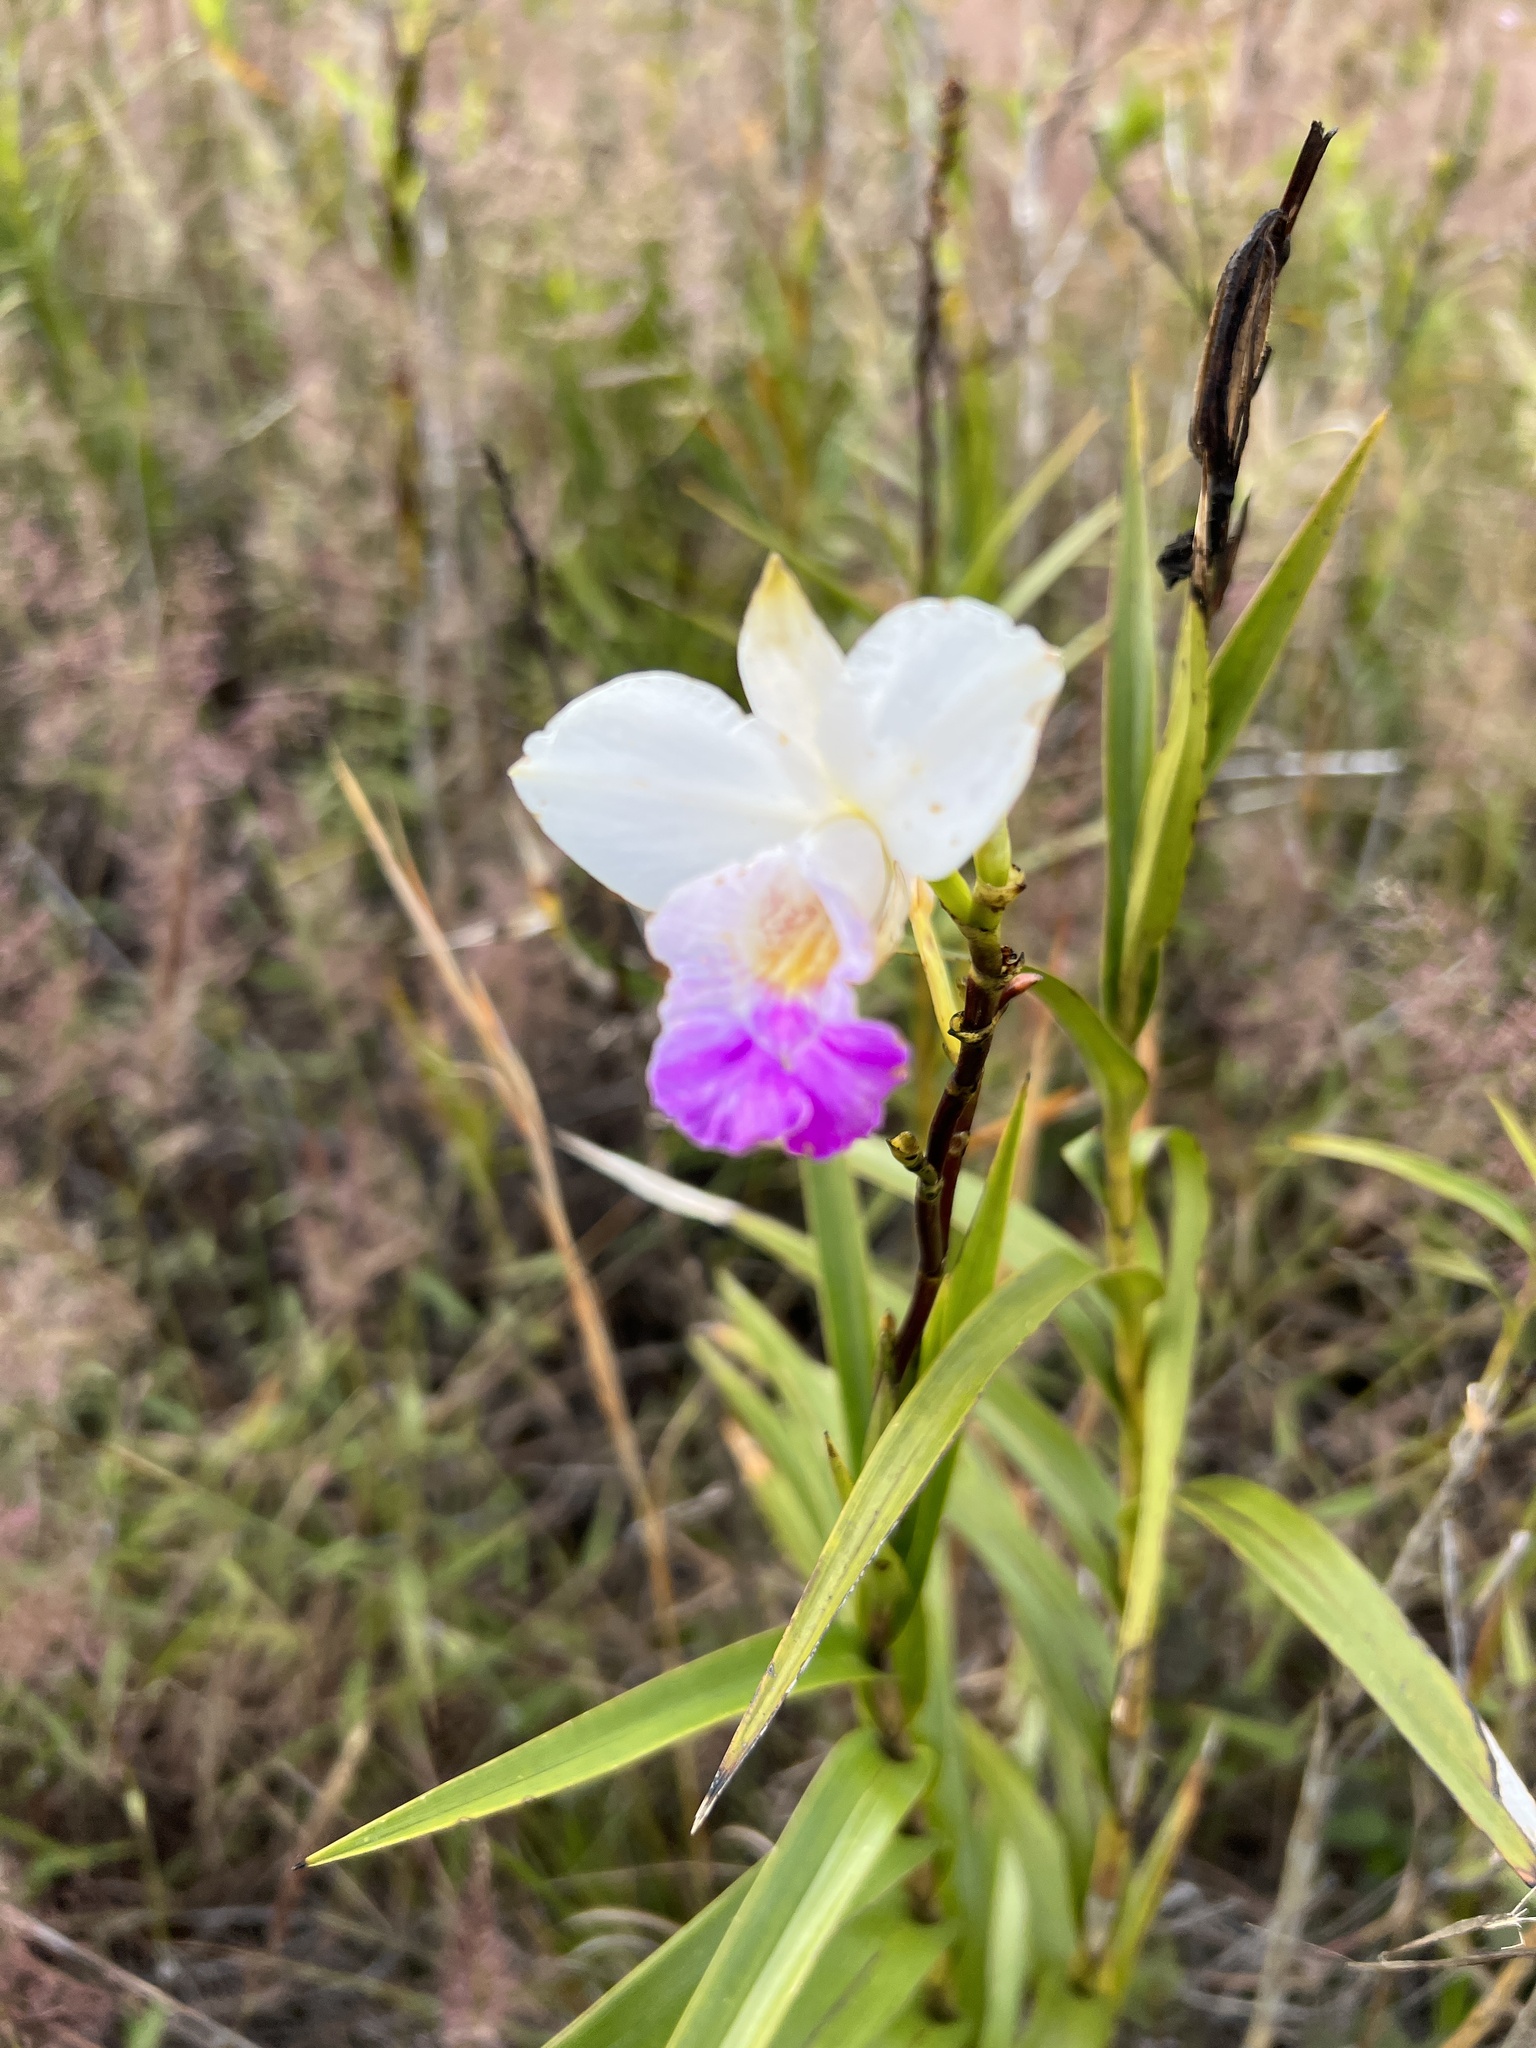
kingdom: Plantae
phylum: Tracheophyta
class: Liliopsida
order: Asparagales
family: Orchidaceae
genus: Arundina
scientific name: Arundina graminifolia
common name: Bamboo orchid
